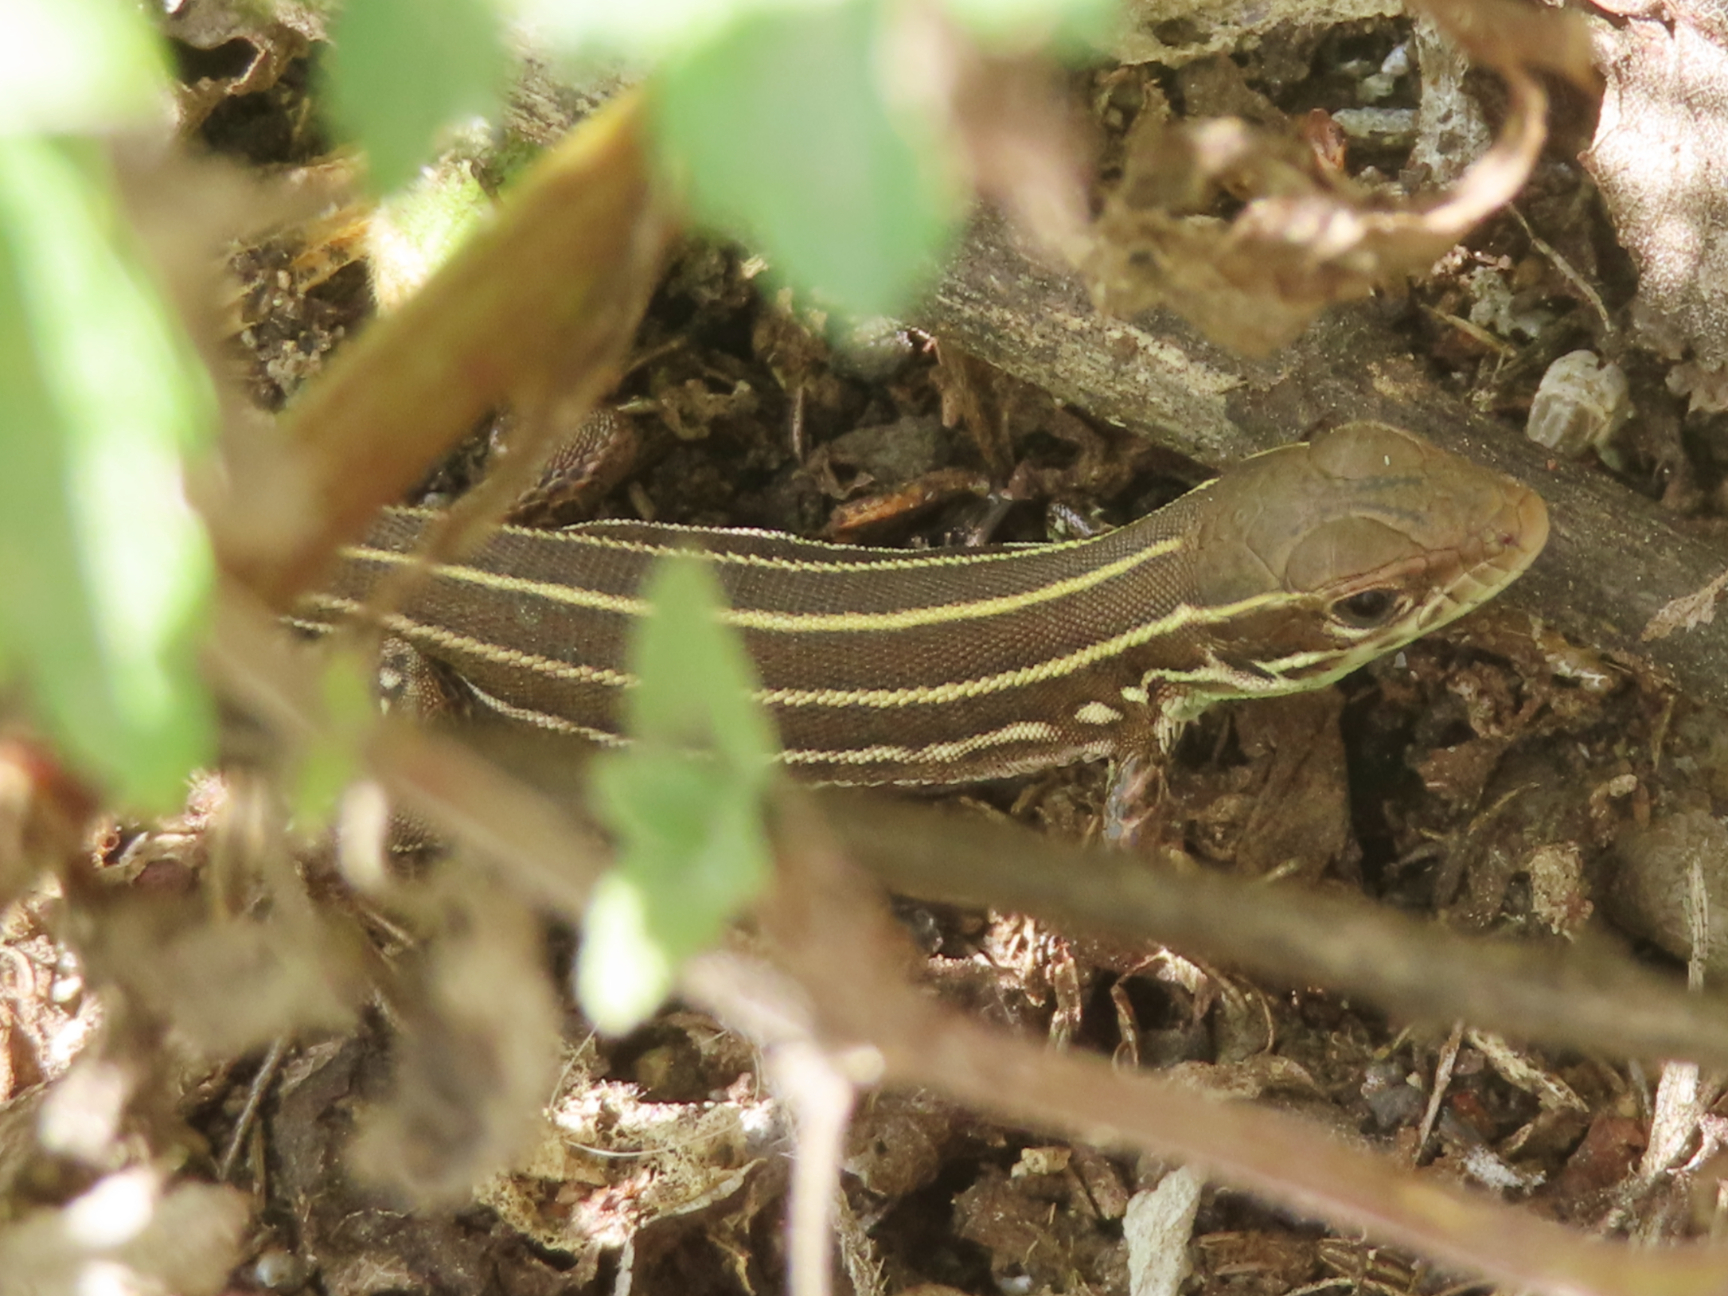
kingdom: Animalia
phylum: Chordata
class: Squamata
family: Lacertidae
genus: Lacerta
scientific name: Lacerta strigata
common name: Caspian green lizard
